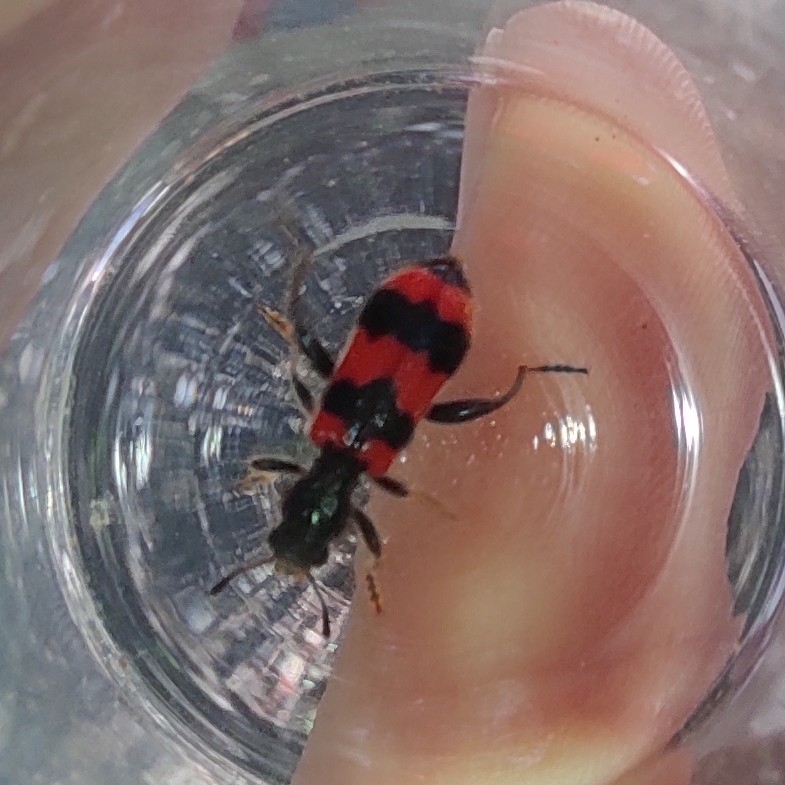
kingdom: Animalia
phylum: Arthropoda
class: Insecta
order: Coleoptera
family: Cleridae
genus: Trichodes
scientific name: Trichodes apiarius
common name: Bee-eating beetle
